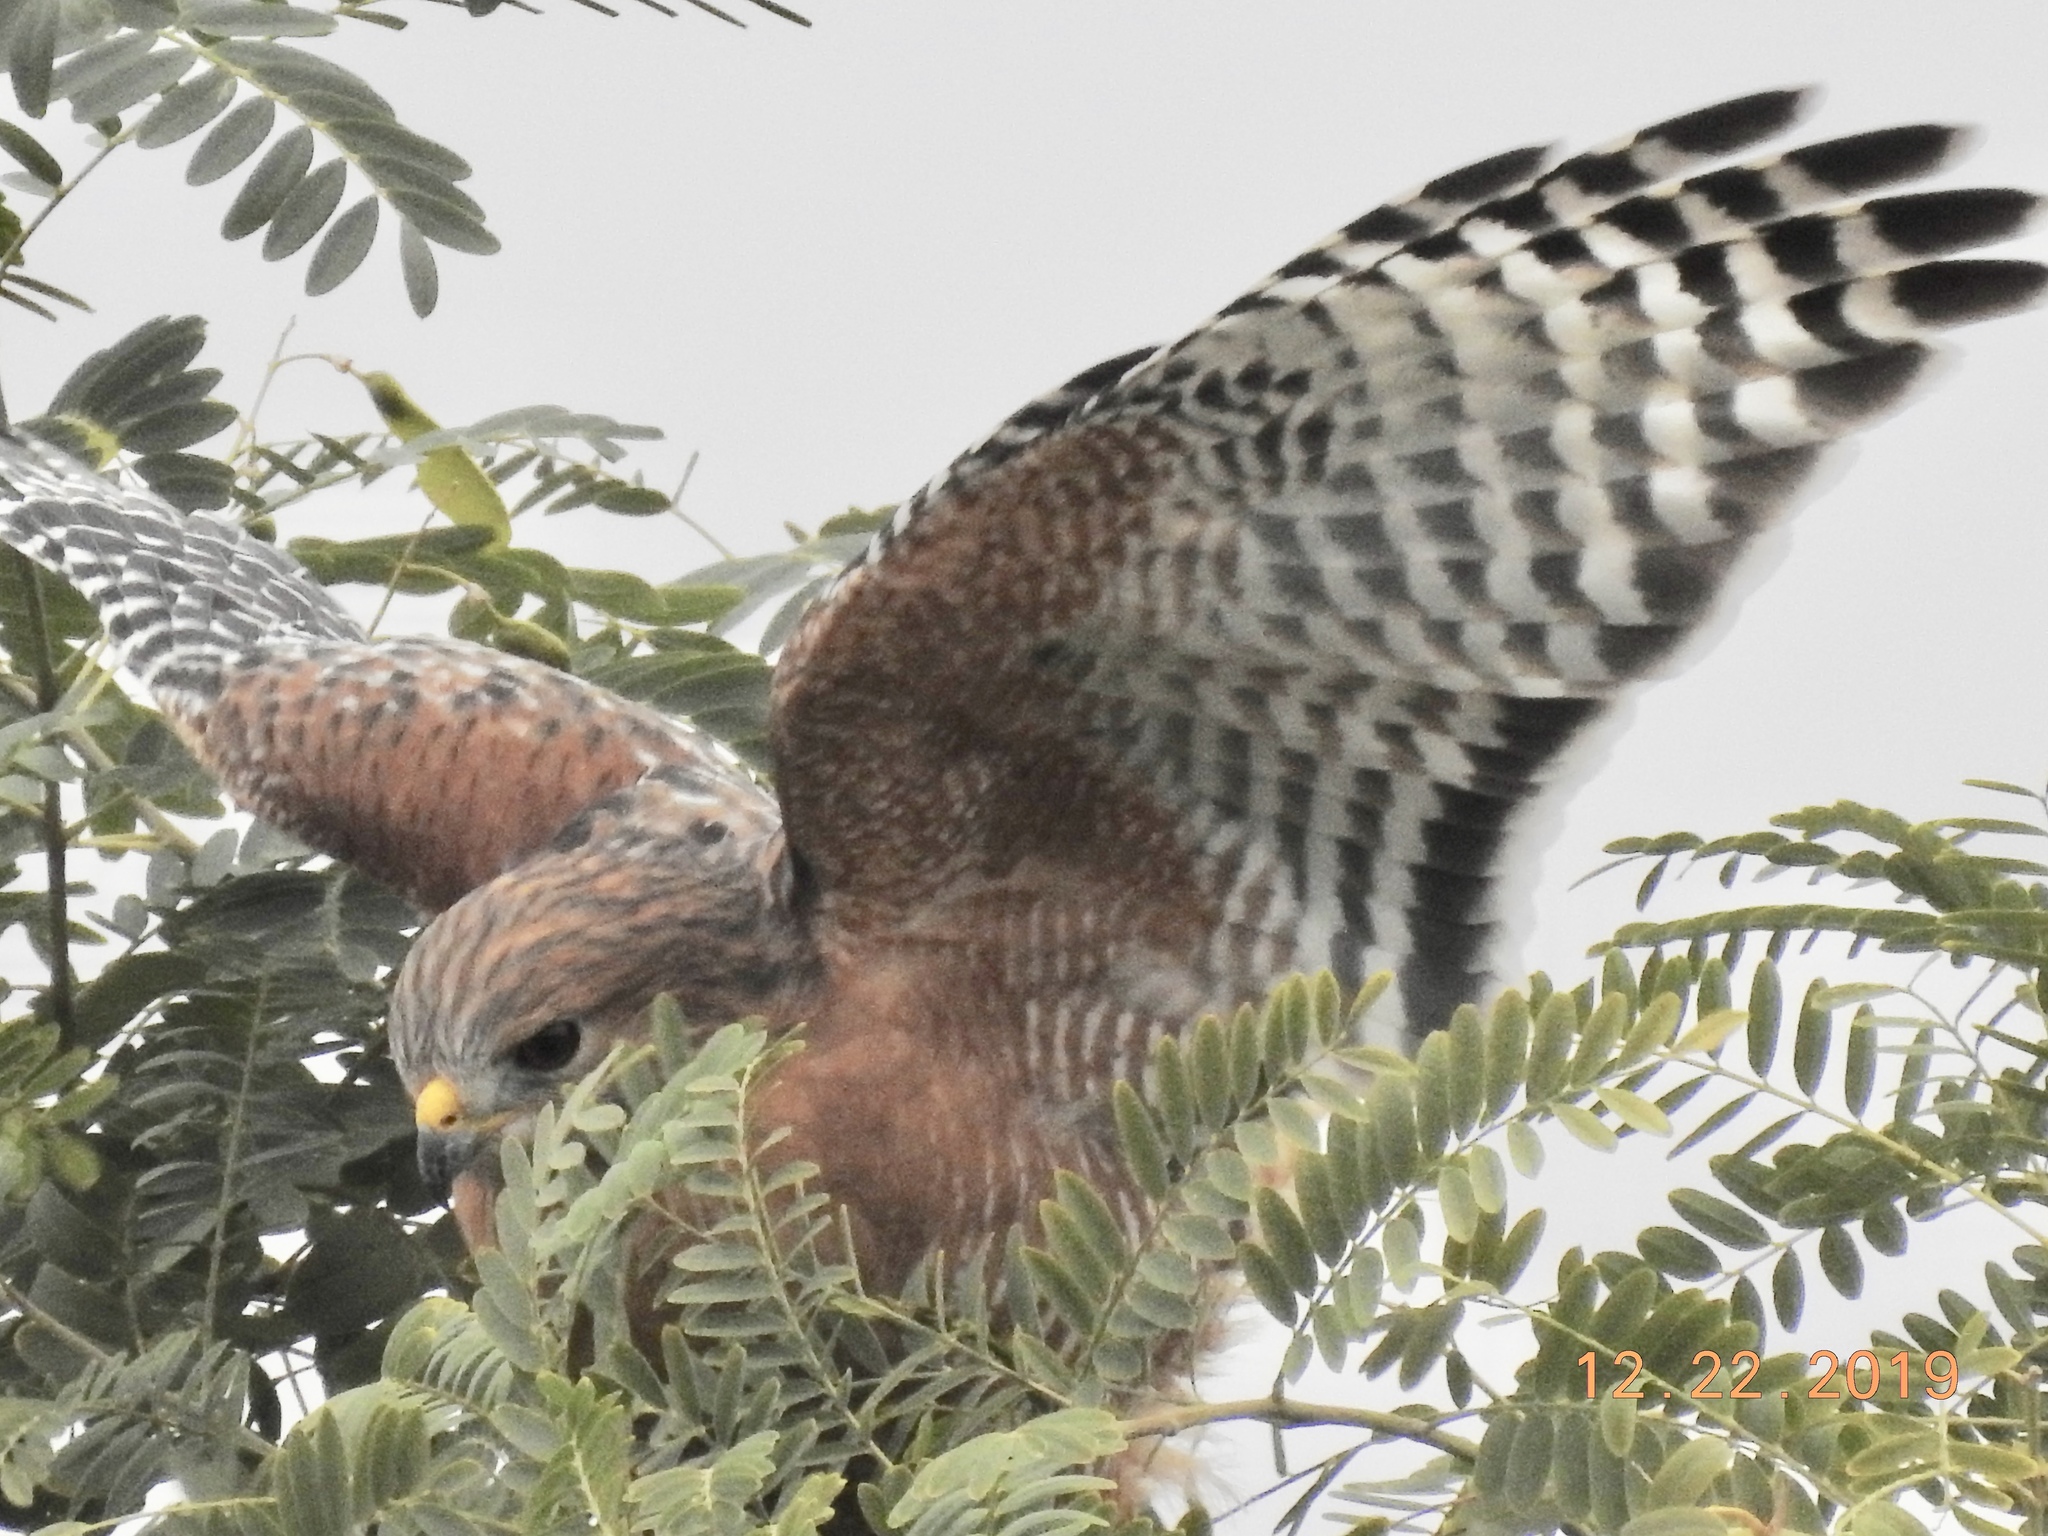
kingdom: Animalia
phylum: Chordata
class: Aves
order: Accipitriformes
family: Accipitridae
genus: Buteo
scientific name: Buteo lineatus
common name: Red-shouldered hawk
